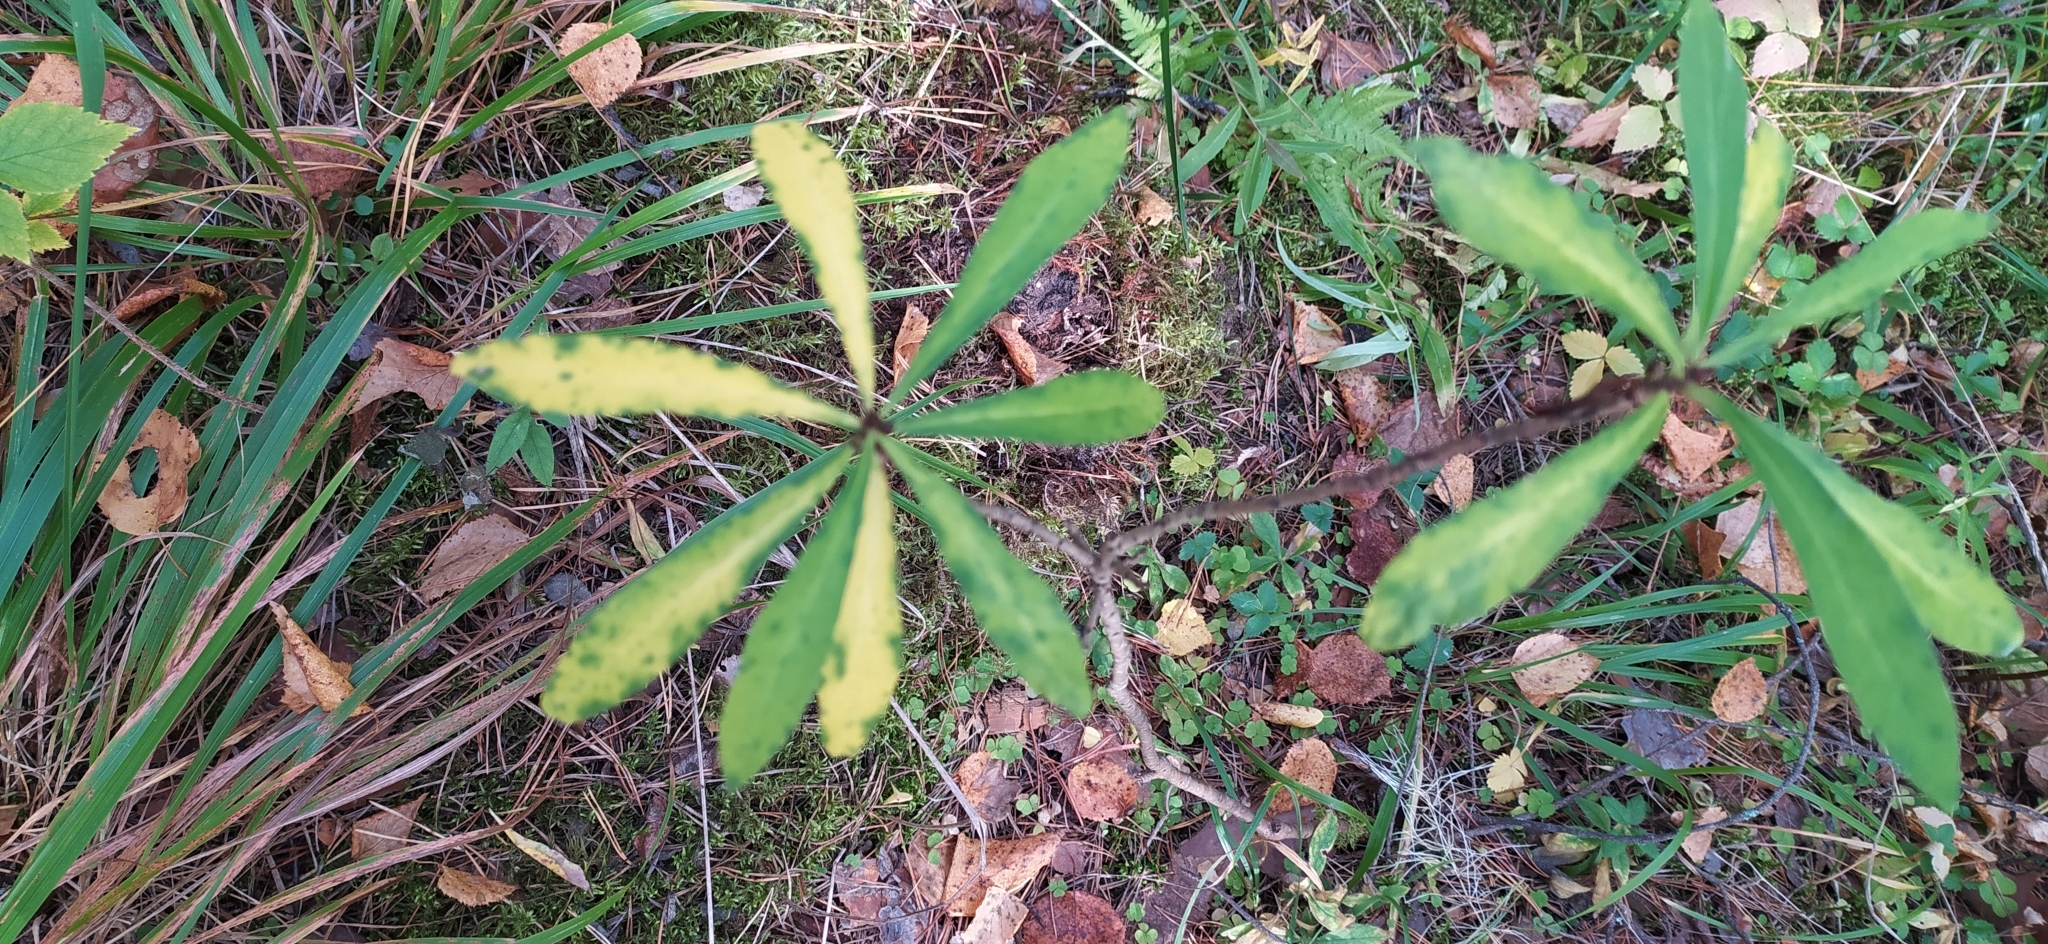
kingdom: Plantae
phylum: Tracheophyta
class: Magnoliopsida
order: Malvales
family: Thymelaeaceae
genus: Daphne
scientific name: Daphne mezereum
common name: Mezereon
